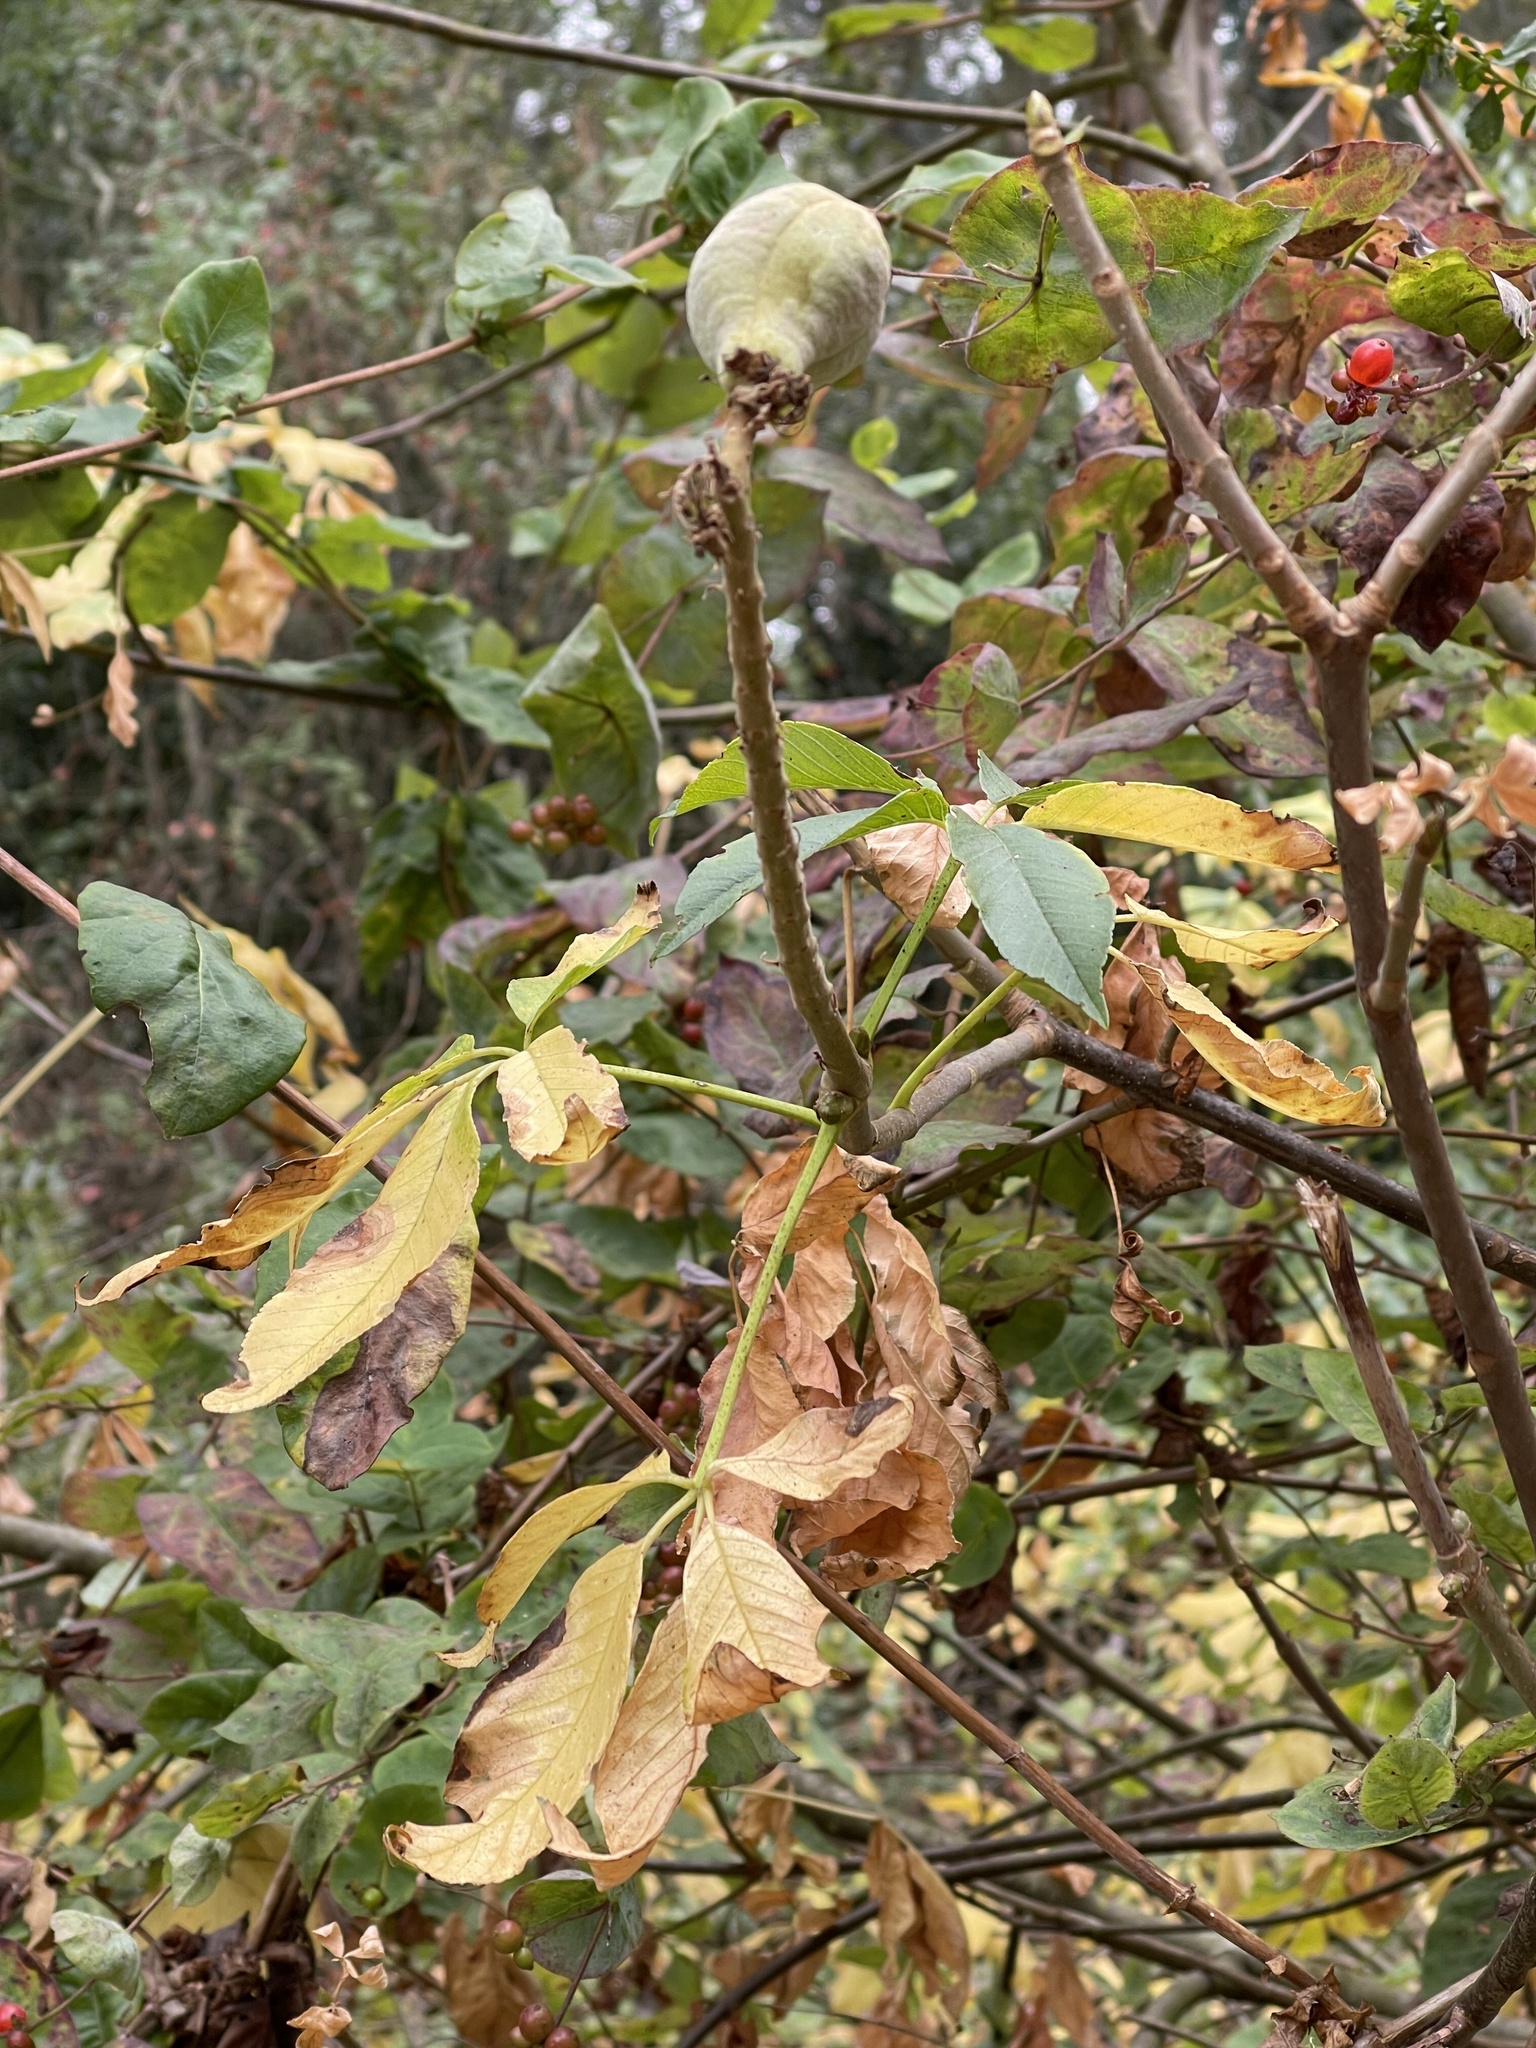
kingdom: Plantae
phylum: Tracheophyta
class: Magnoliopsida
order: Sapindales
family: Sapindaceae
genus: Aesculus
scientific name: Aesculus californica
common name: California buckeye
